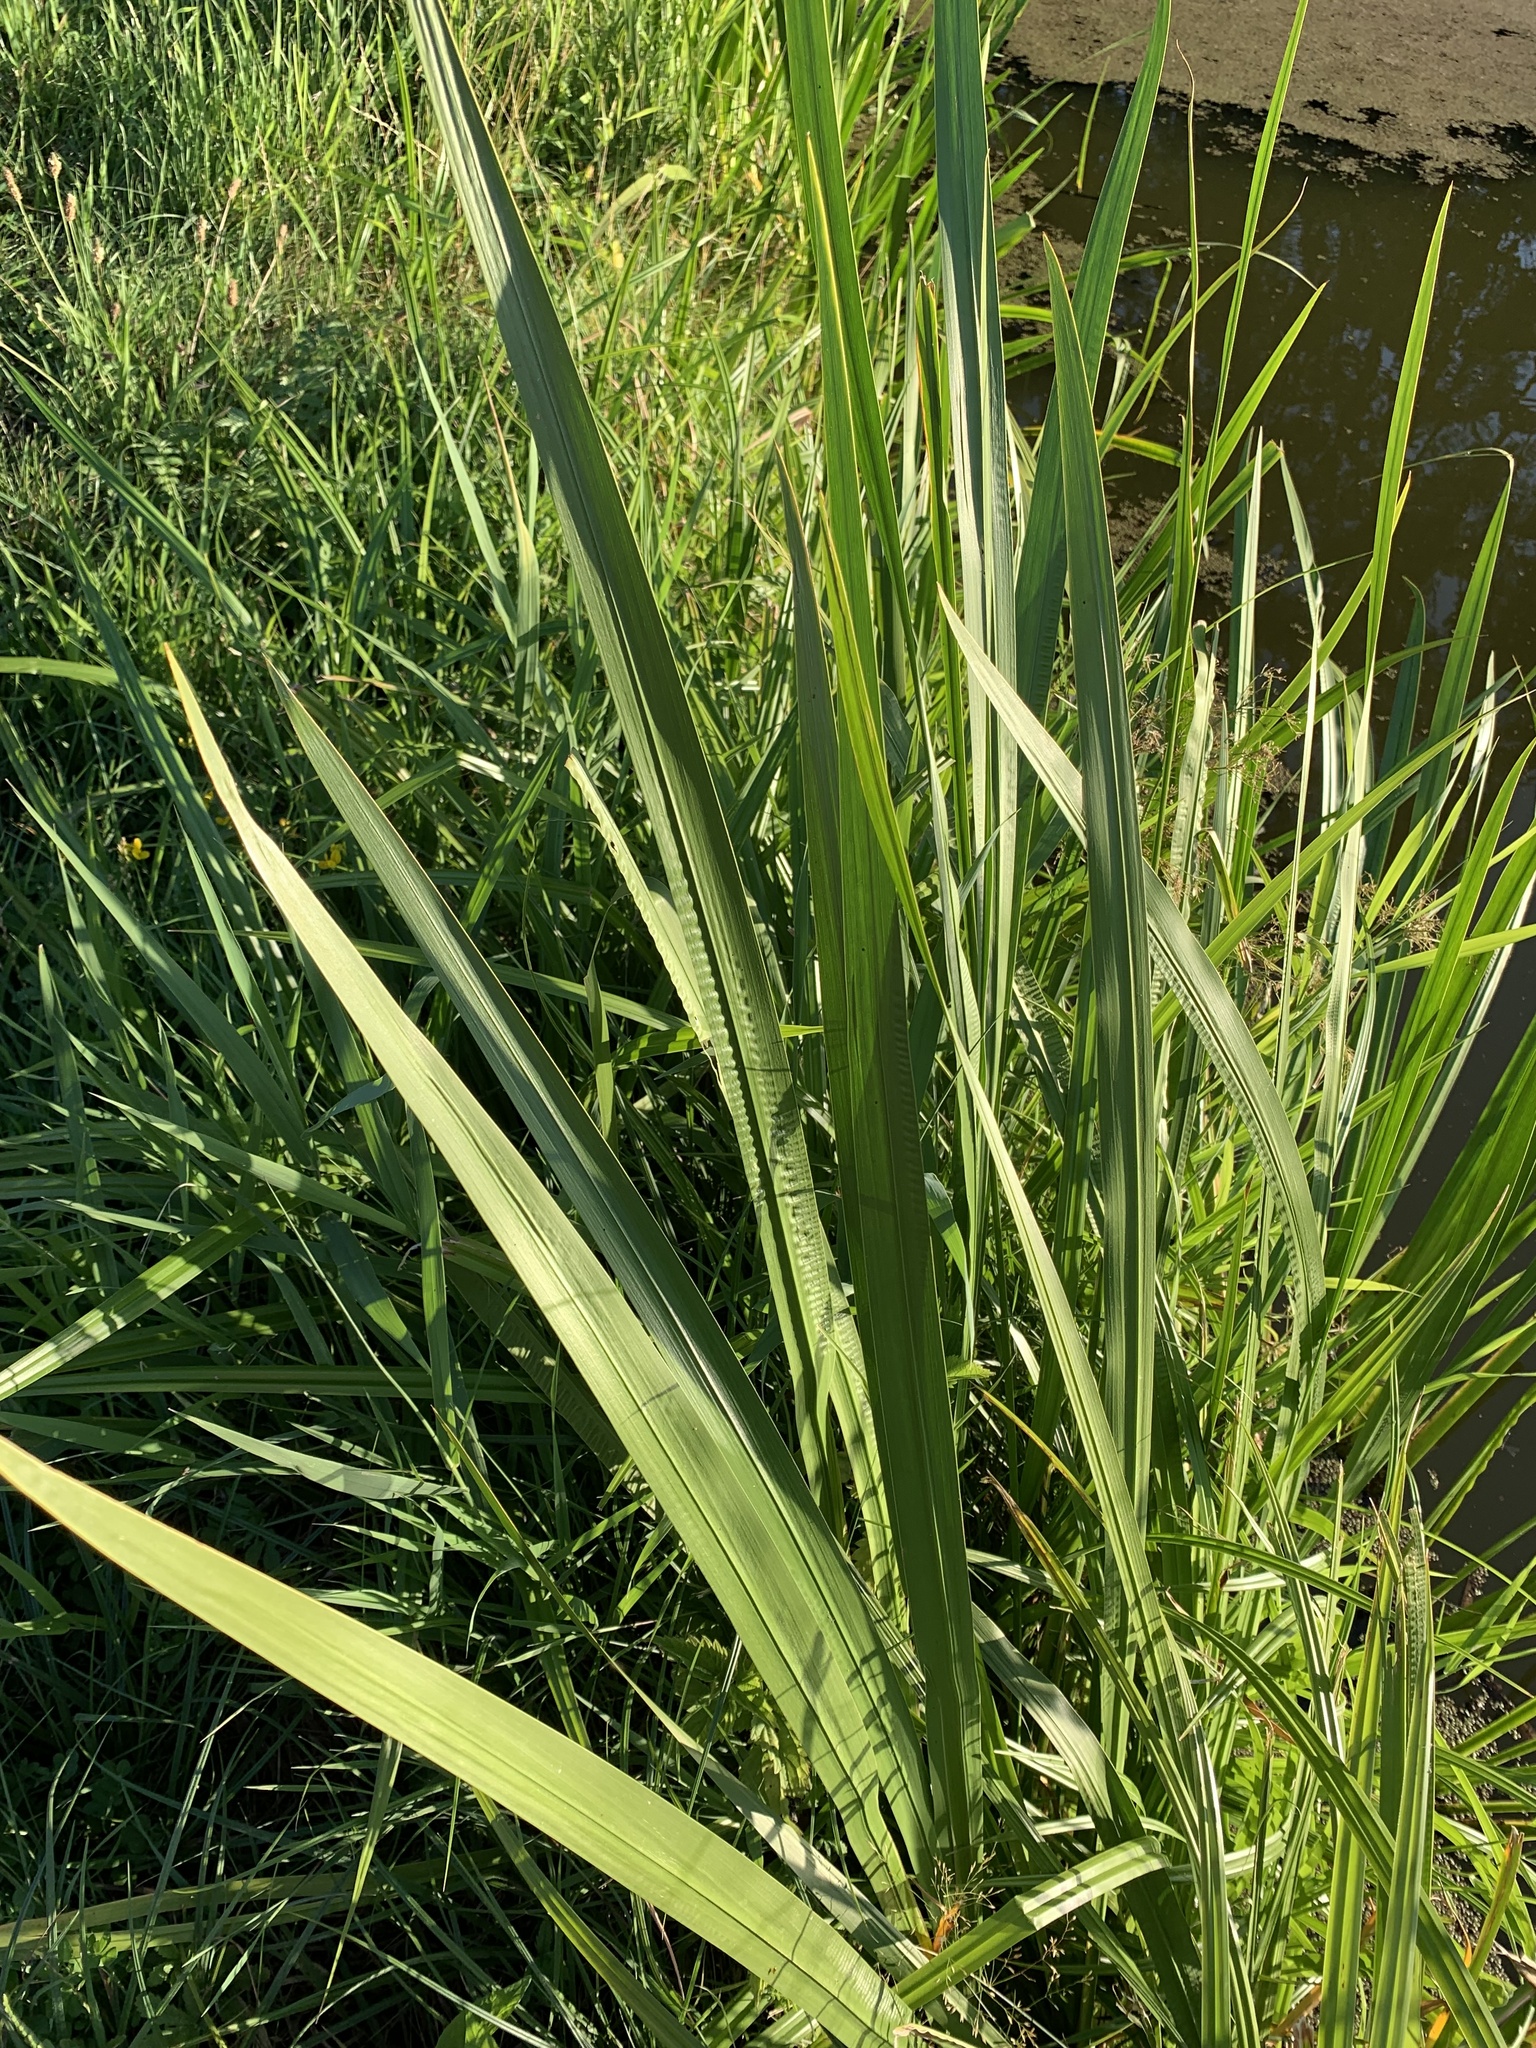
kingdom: Plantae
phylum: Tracheophyta
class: Liliopsida
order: Acorales
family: Acoraceae
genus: Acorus
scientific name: Acorus calamus
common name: Sweet-flag
